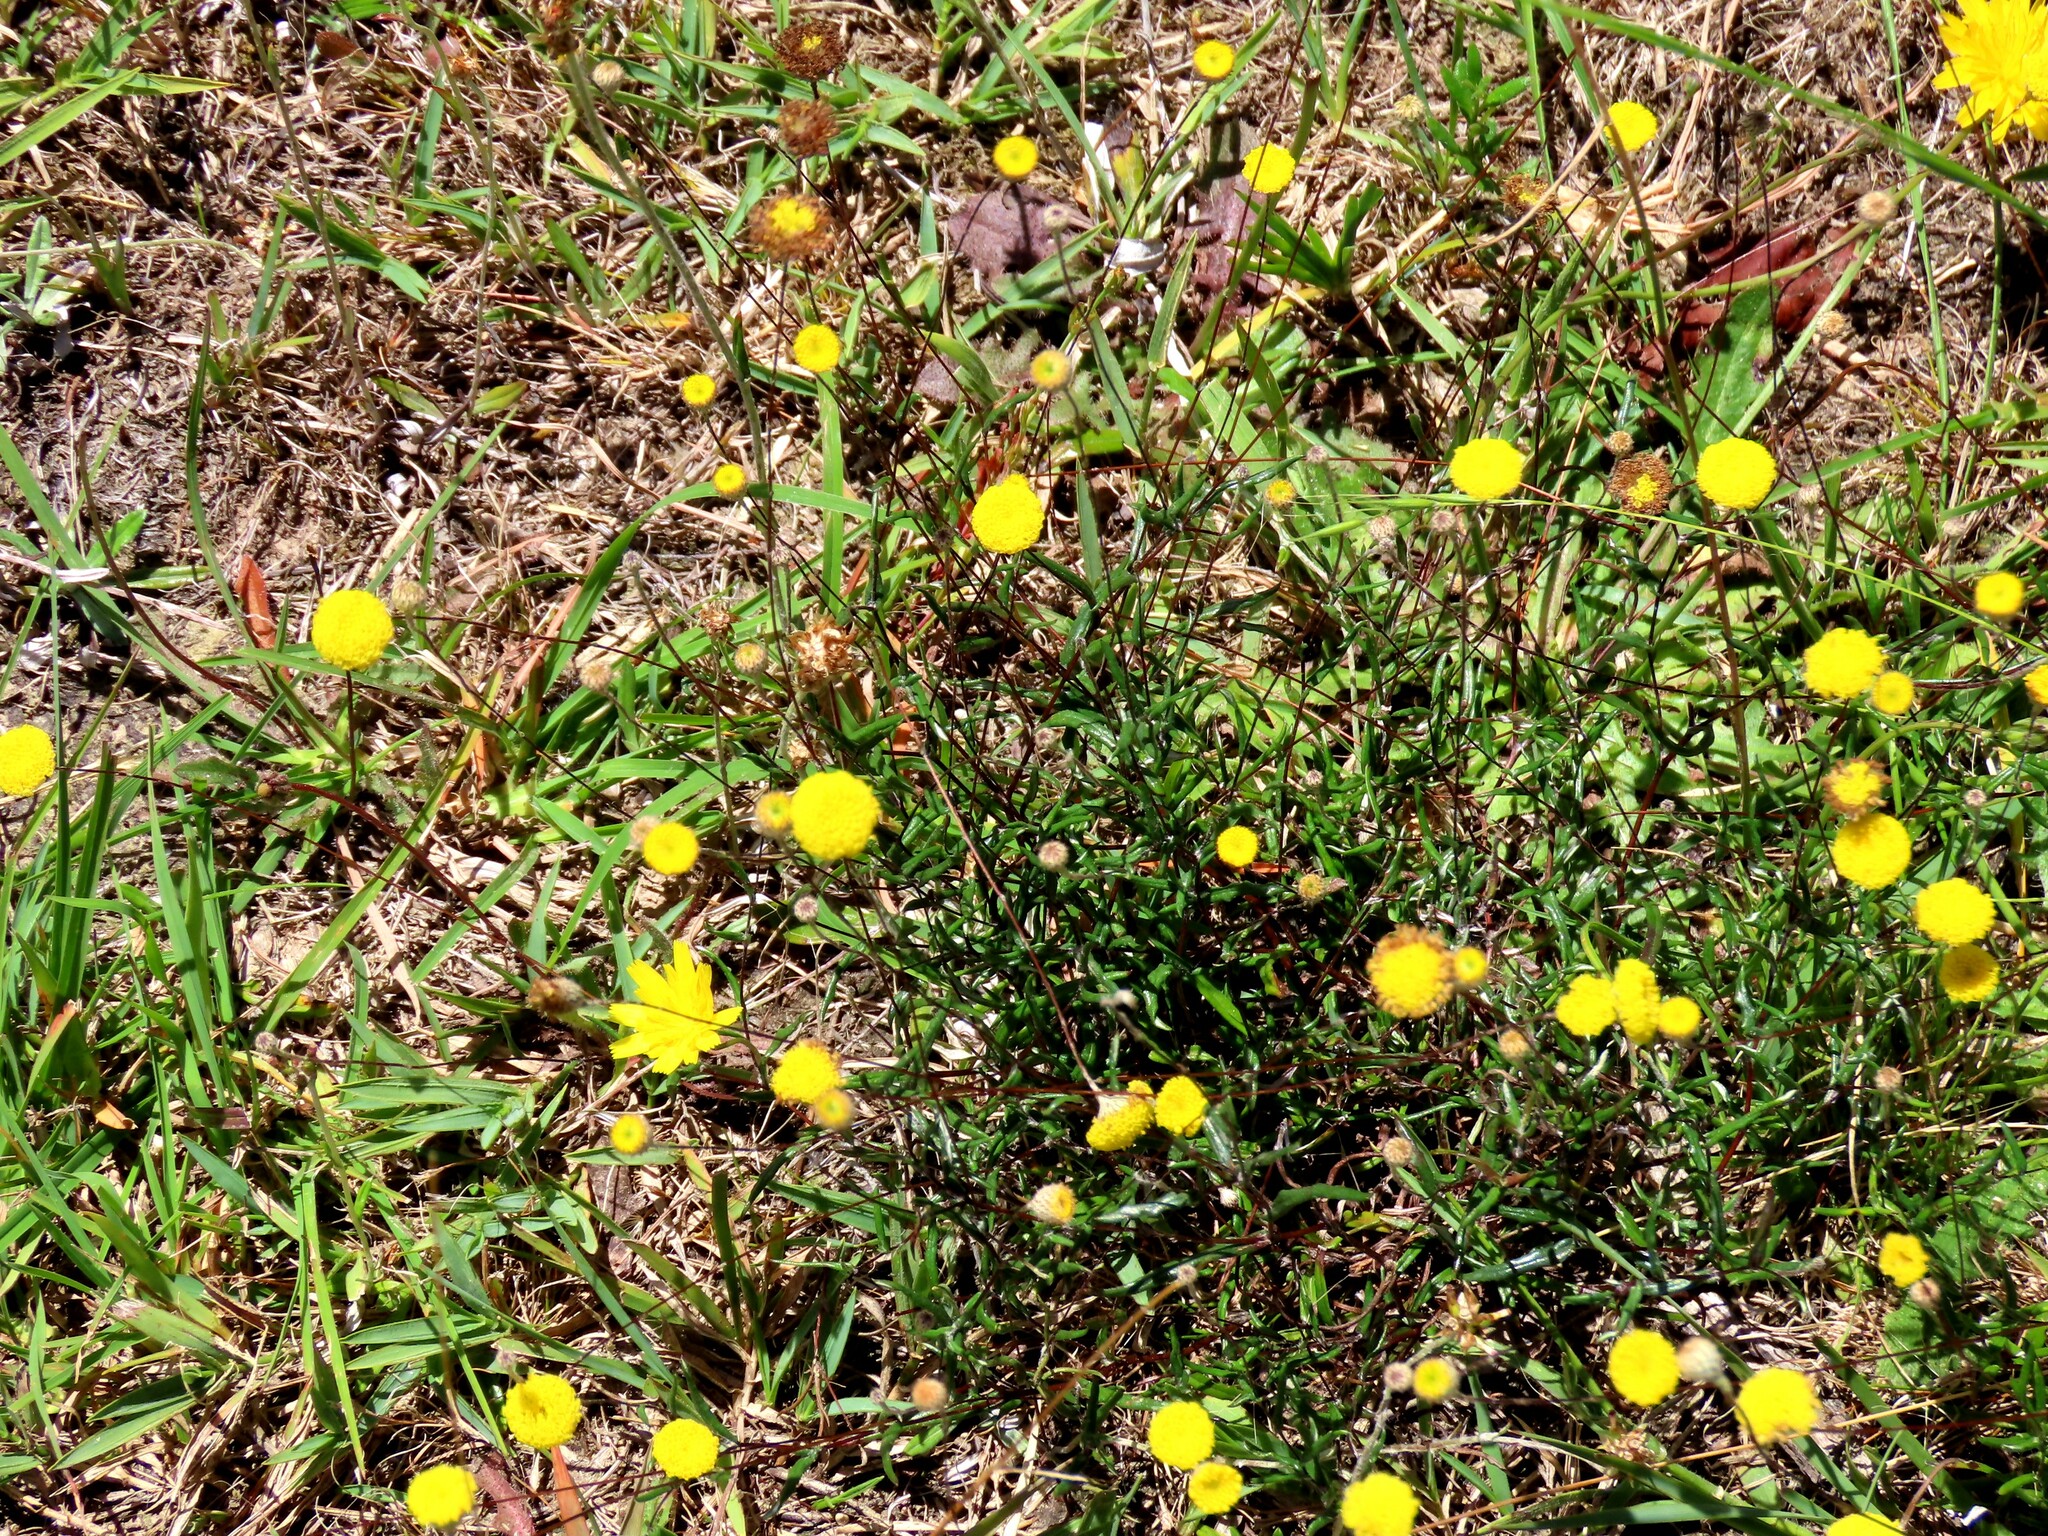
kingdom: Plantae
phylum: Tracheophyta
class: Magnoliopsida
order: Asterales
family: Asteraceae
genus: Leptorhynchos
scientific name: Leptorhynchos tenuifolius
